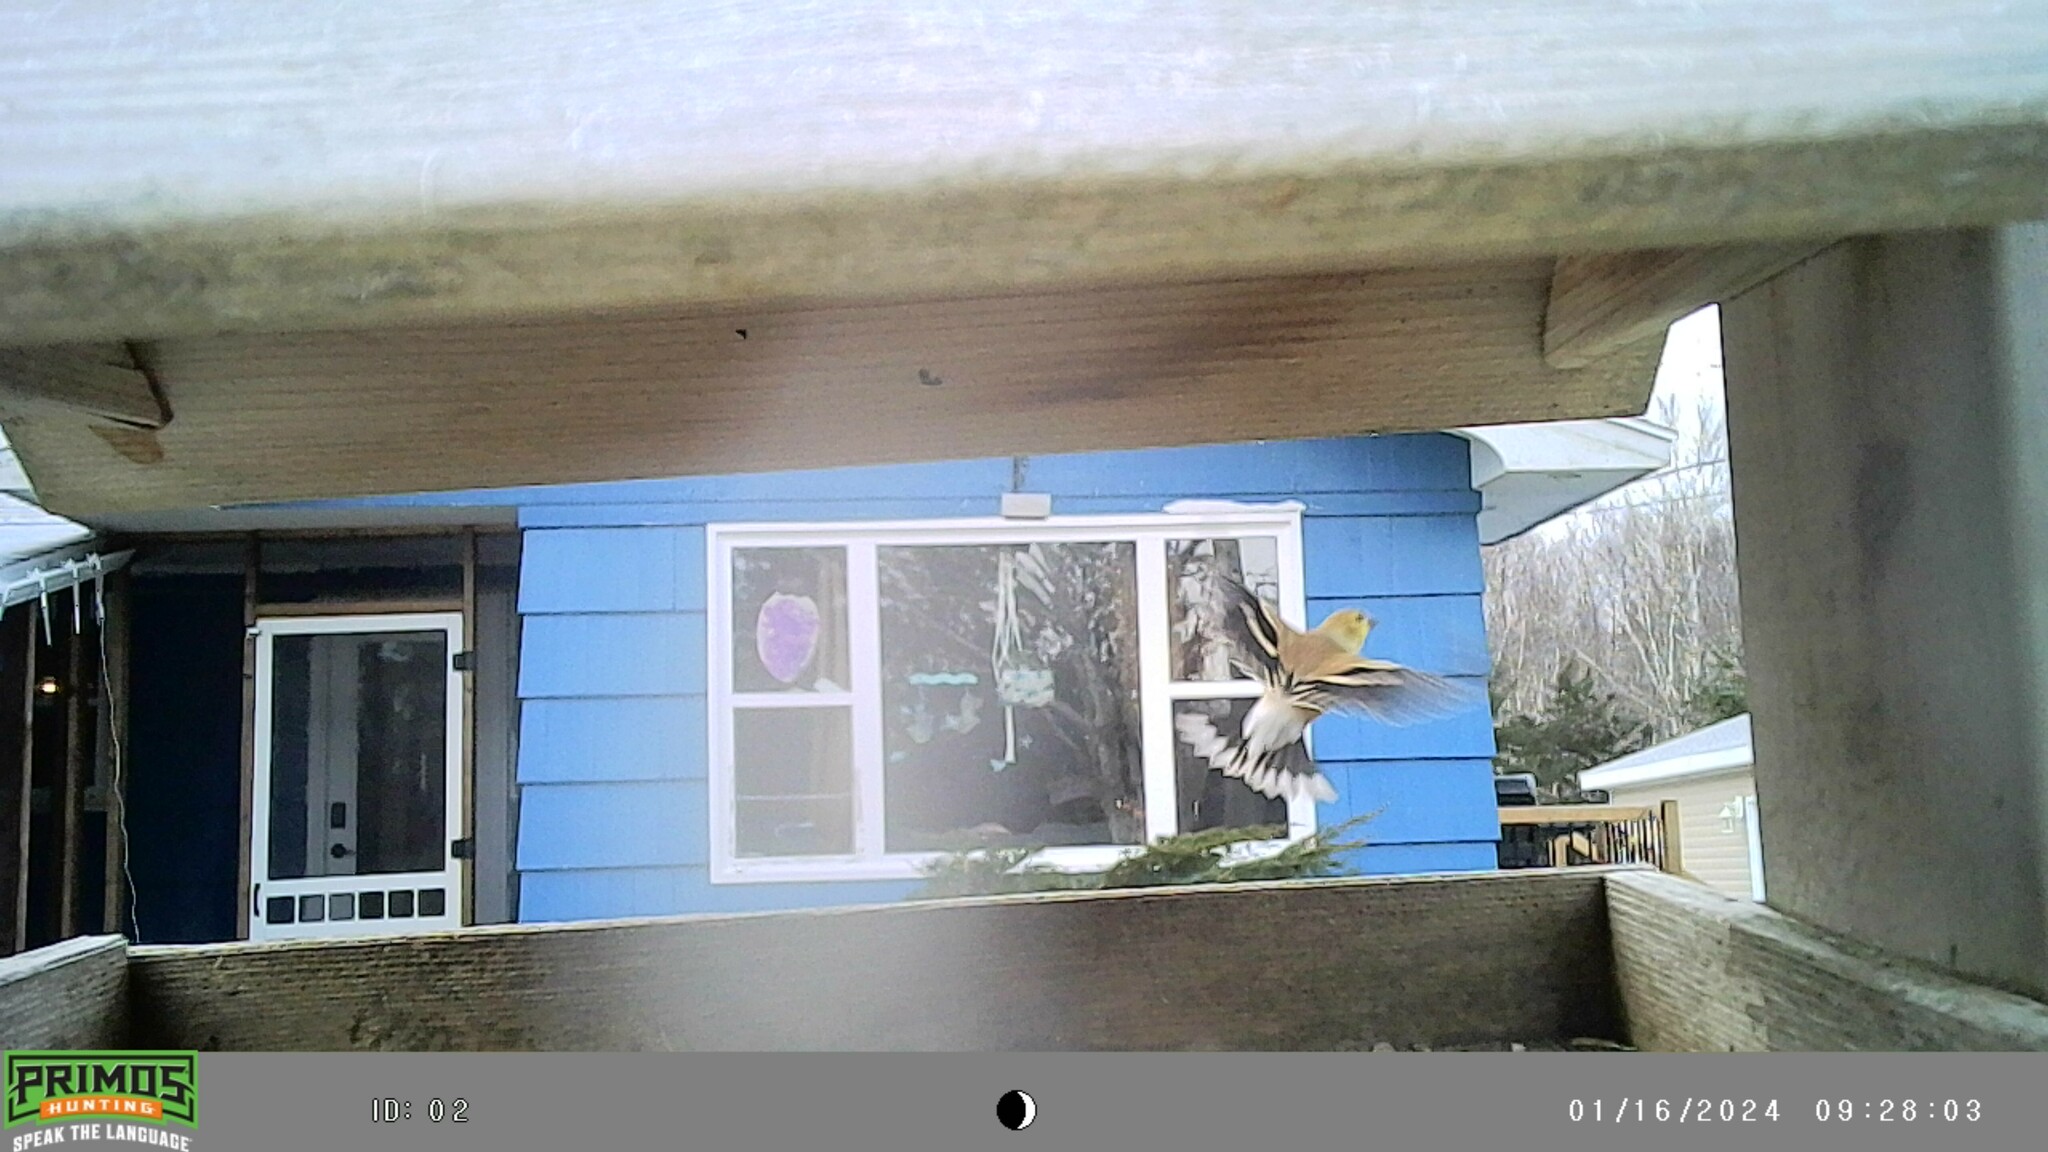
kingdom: Animalia
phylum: Chordata
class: Aves
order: Passeriformes
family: Fringillidae
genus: Spinus
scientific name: Spinus tristis
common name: American goldfinch
